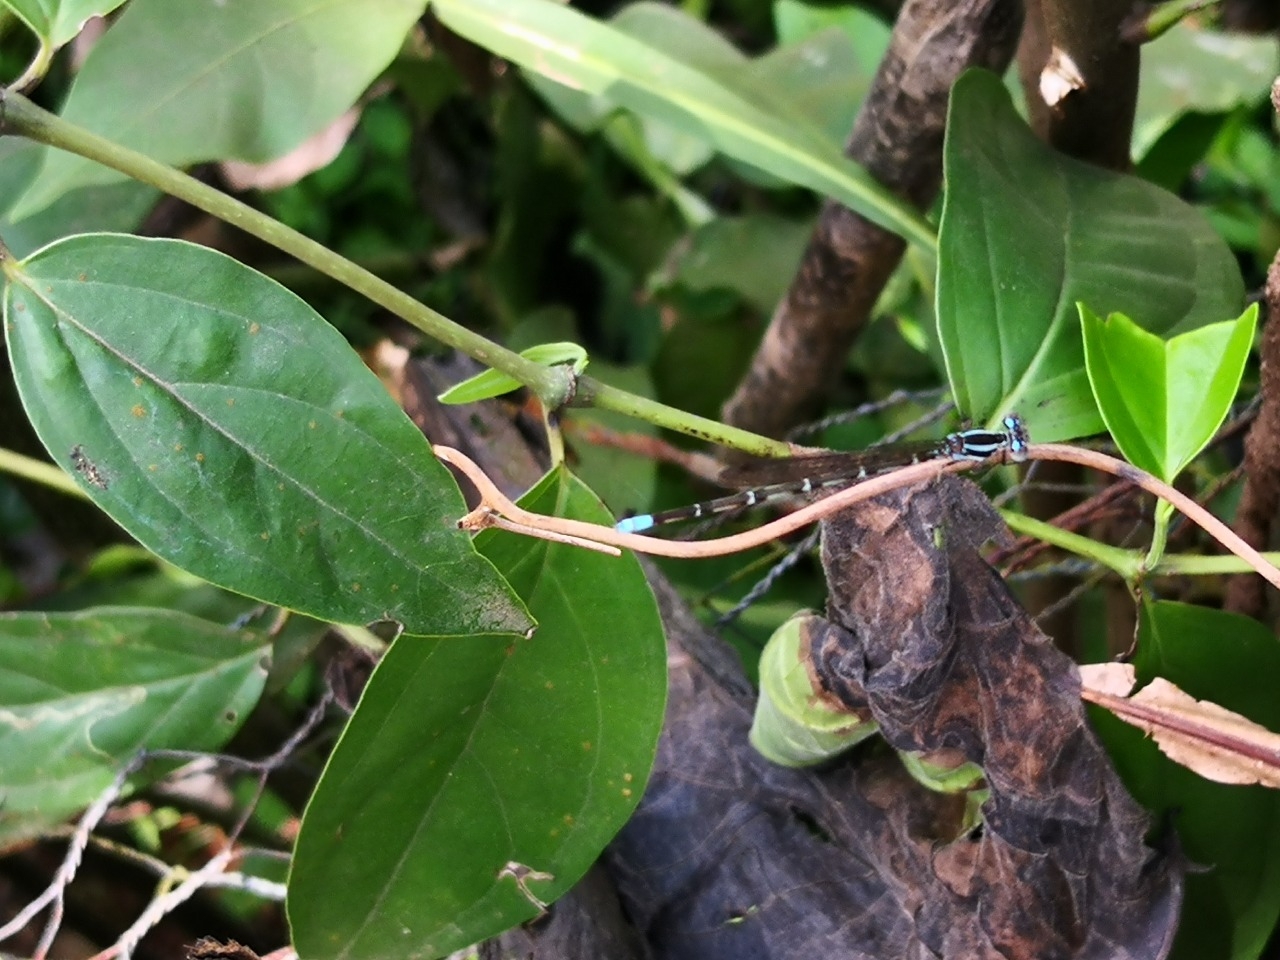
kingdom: Animalia
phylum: Arthropoda
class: Insecta
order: Odonata
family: Coenagrionidae
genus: Argia
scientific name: Argia pulla
